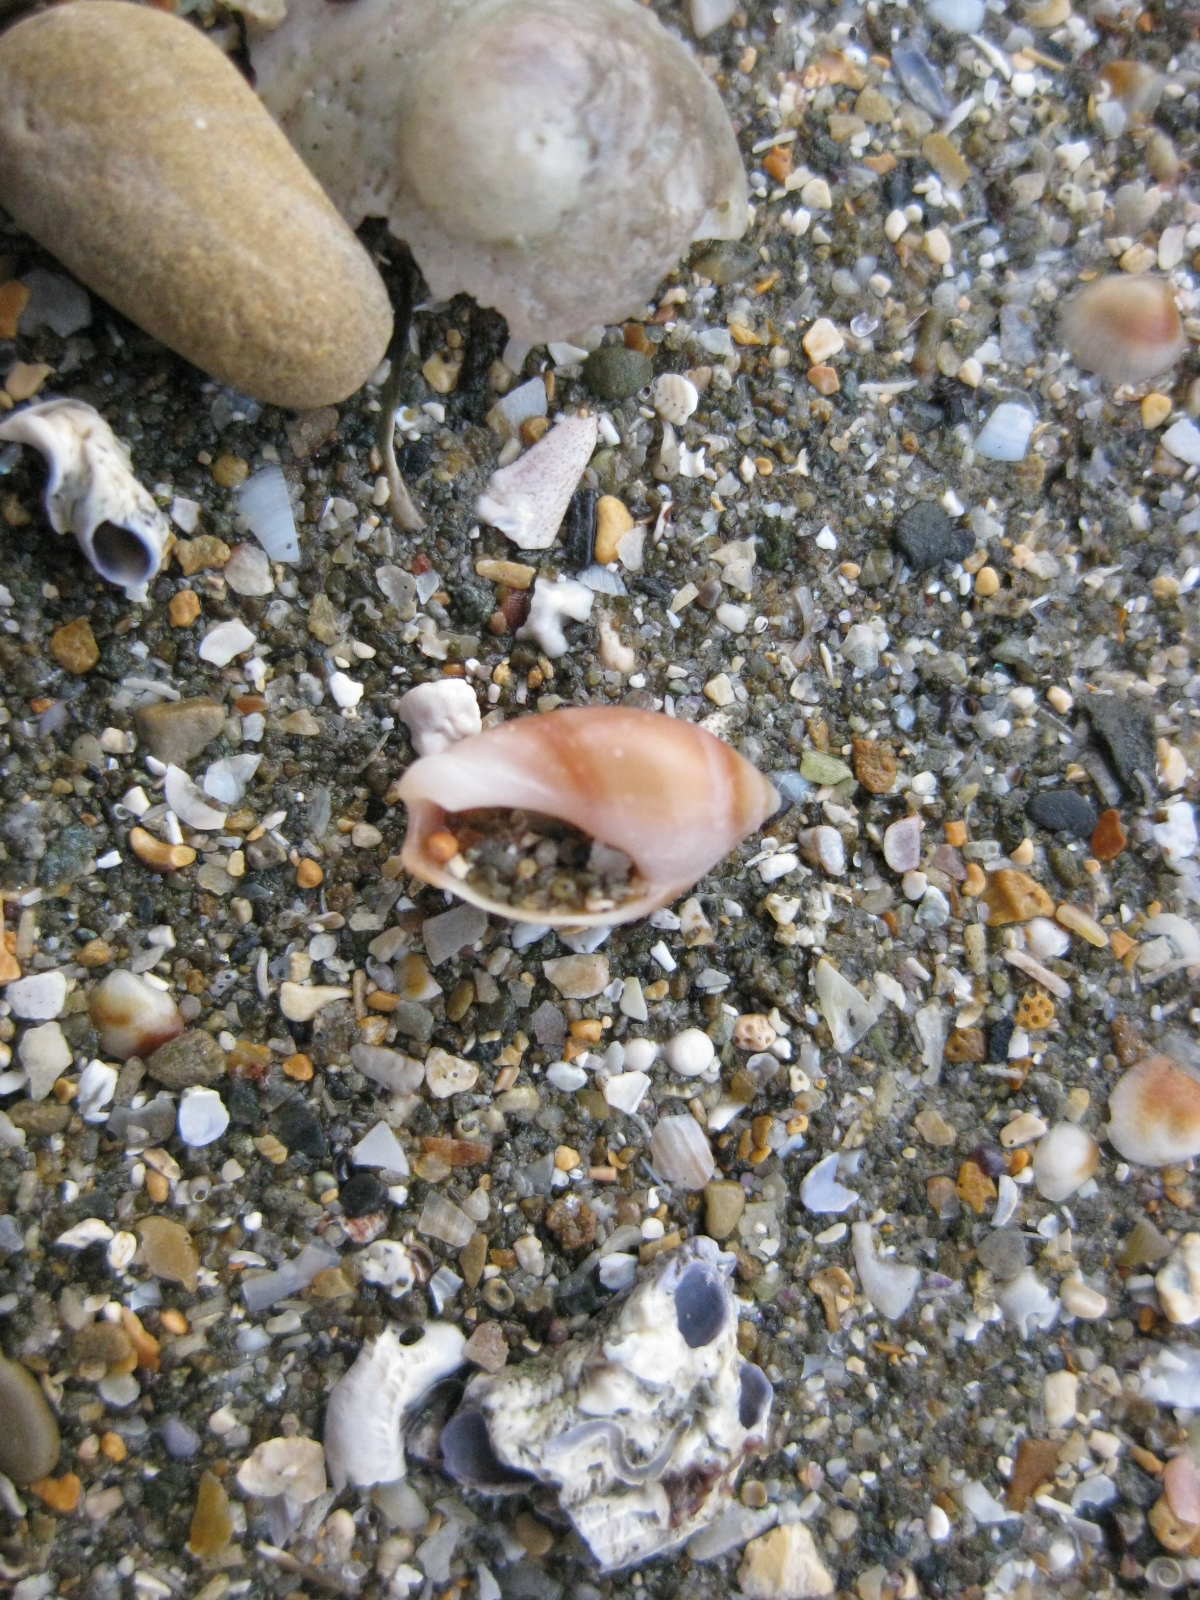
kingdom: Animalia
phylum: Mollusca
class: Gastropoda
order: Neogastropoda
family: Ancillariidae
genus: Amalda
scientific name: Amalda depressa
